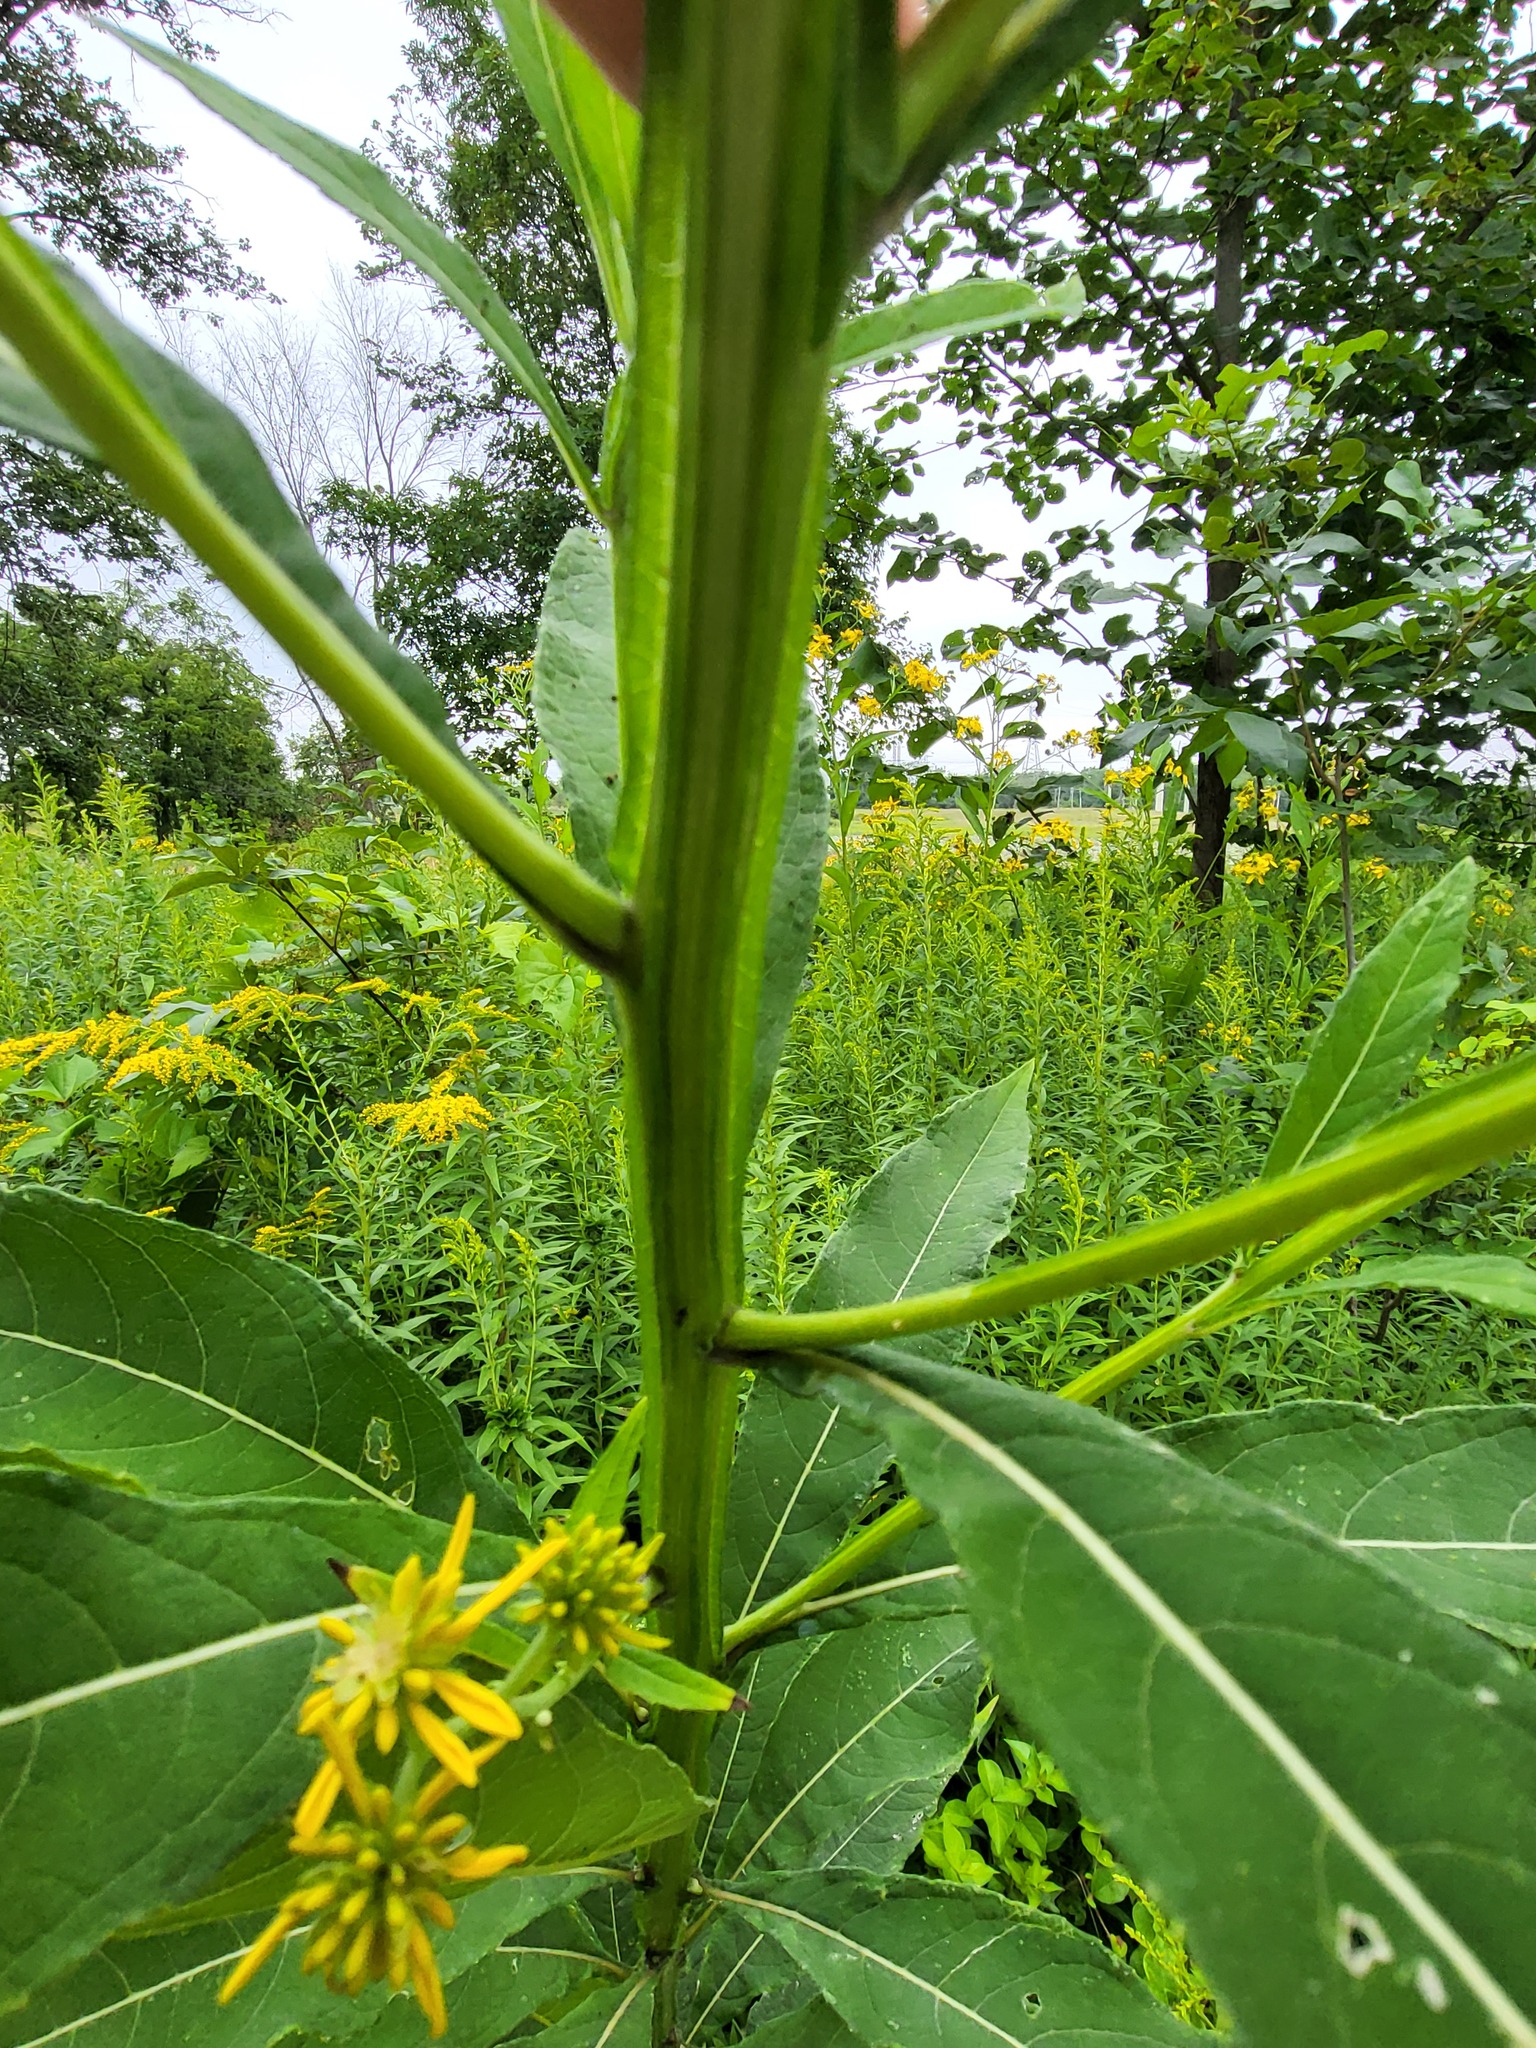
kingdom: Plantae
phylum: Tracheophyta
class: Magnoliopsida
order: Asterales
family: Asteraceae
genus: Verbesina
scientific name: Verbesina alternifolia
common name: Wingstem
